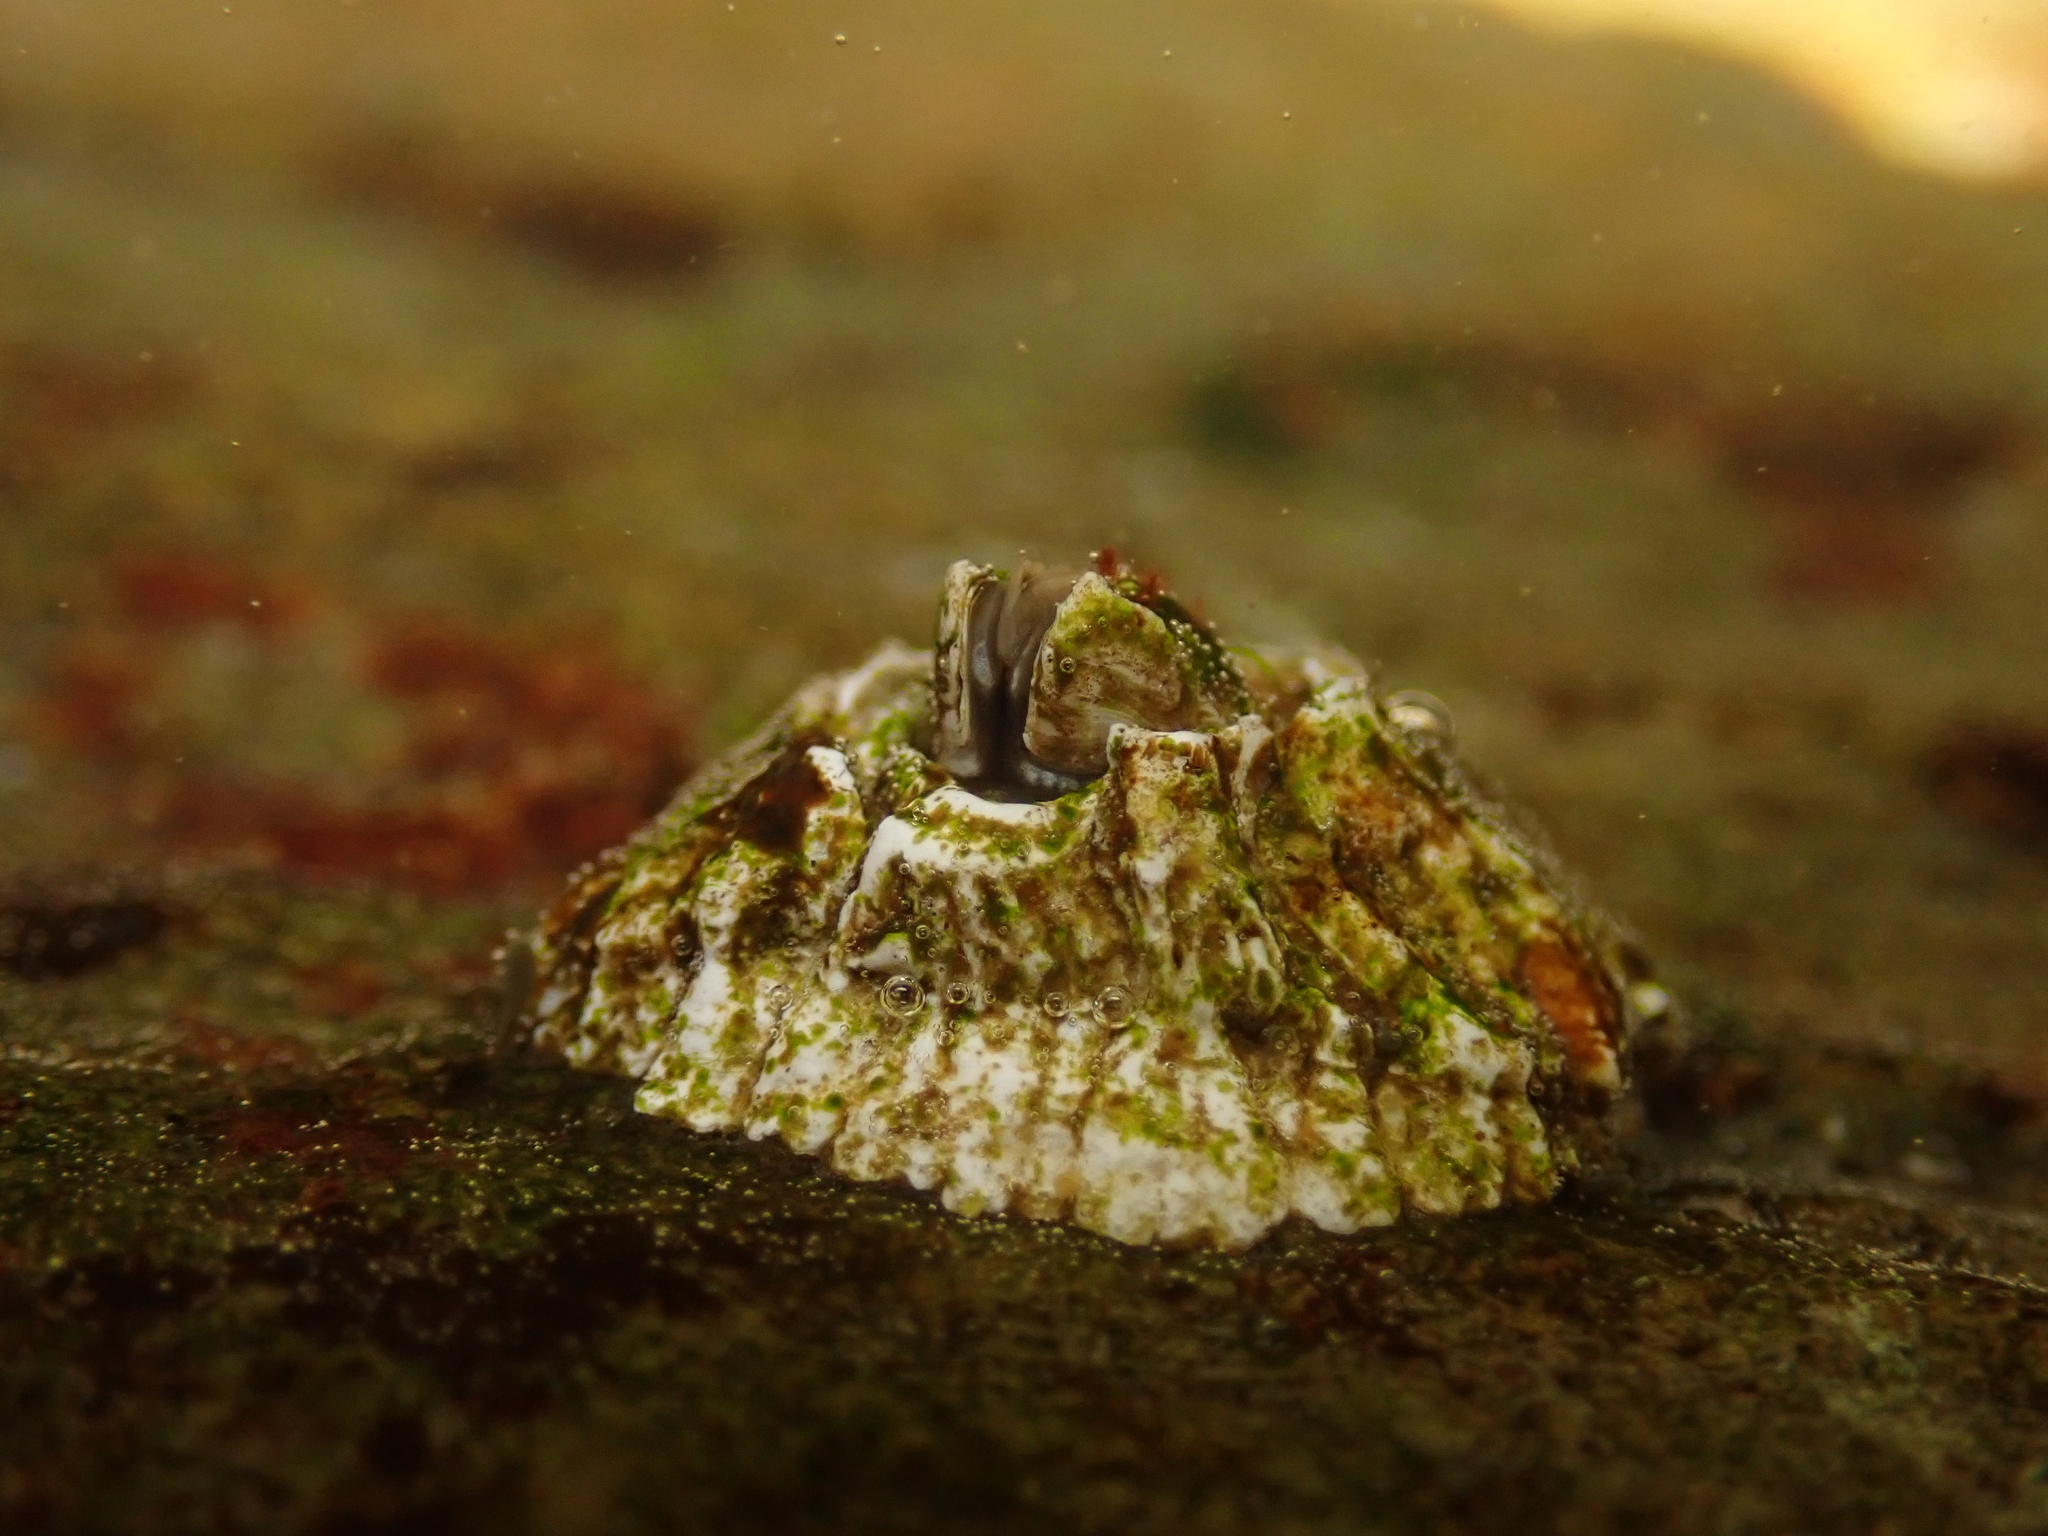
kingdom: Animalia
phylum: Arthropoda
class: Maxillopoda
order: Sessilia
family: Archaeobalanidae
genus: Semibalanus
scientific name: Semibalanus balanoides
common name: Acorn barnacle
